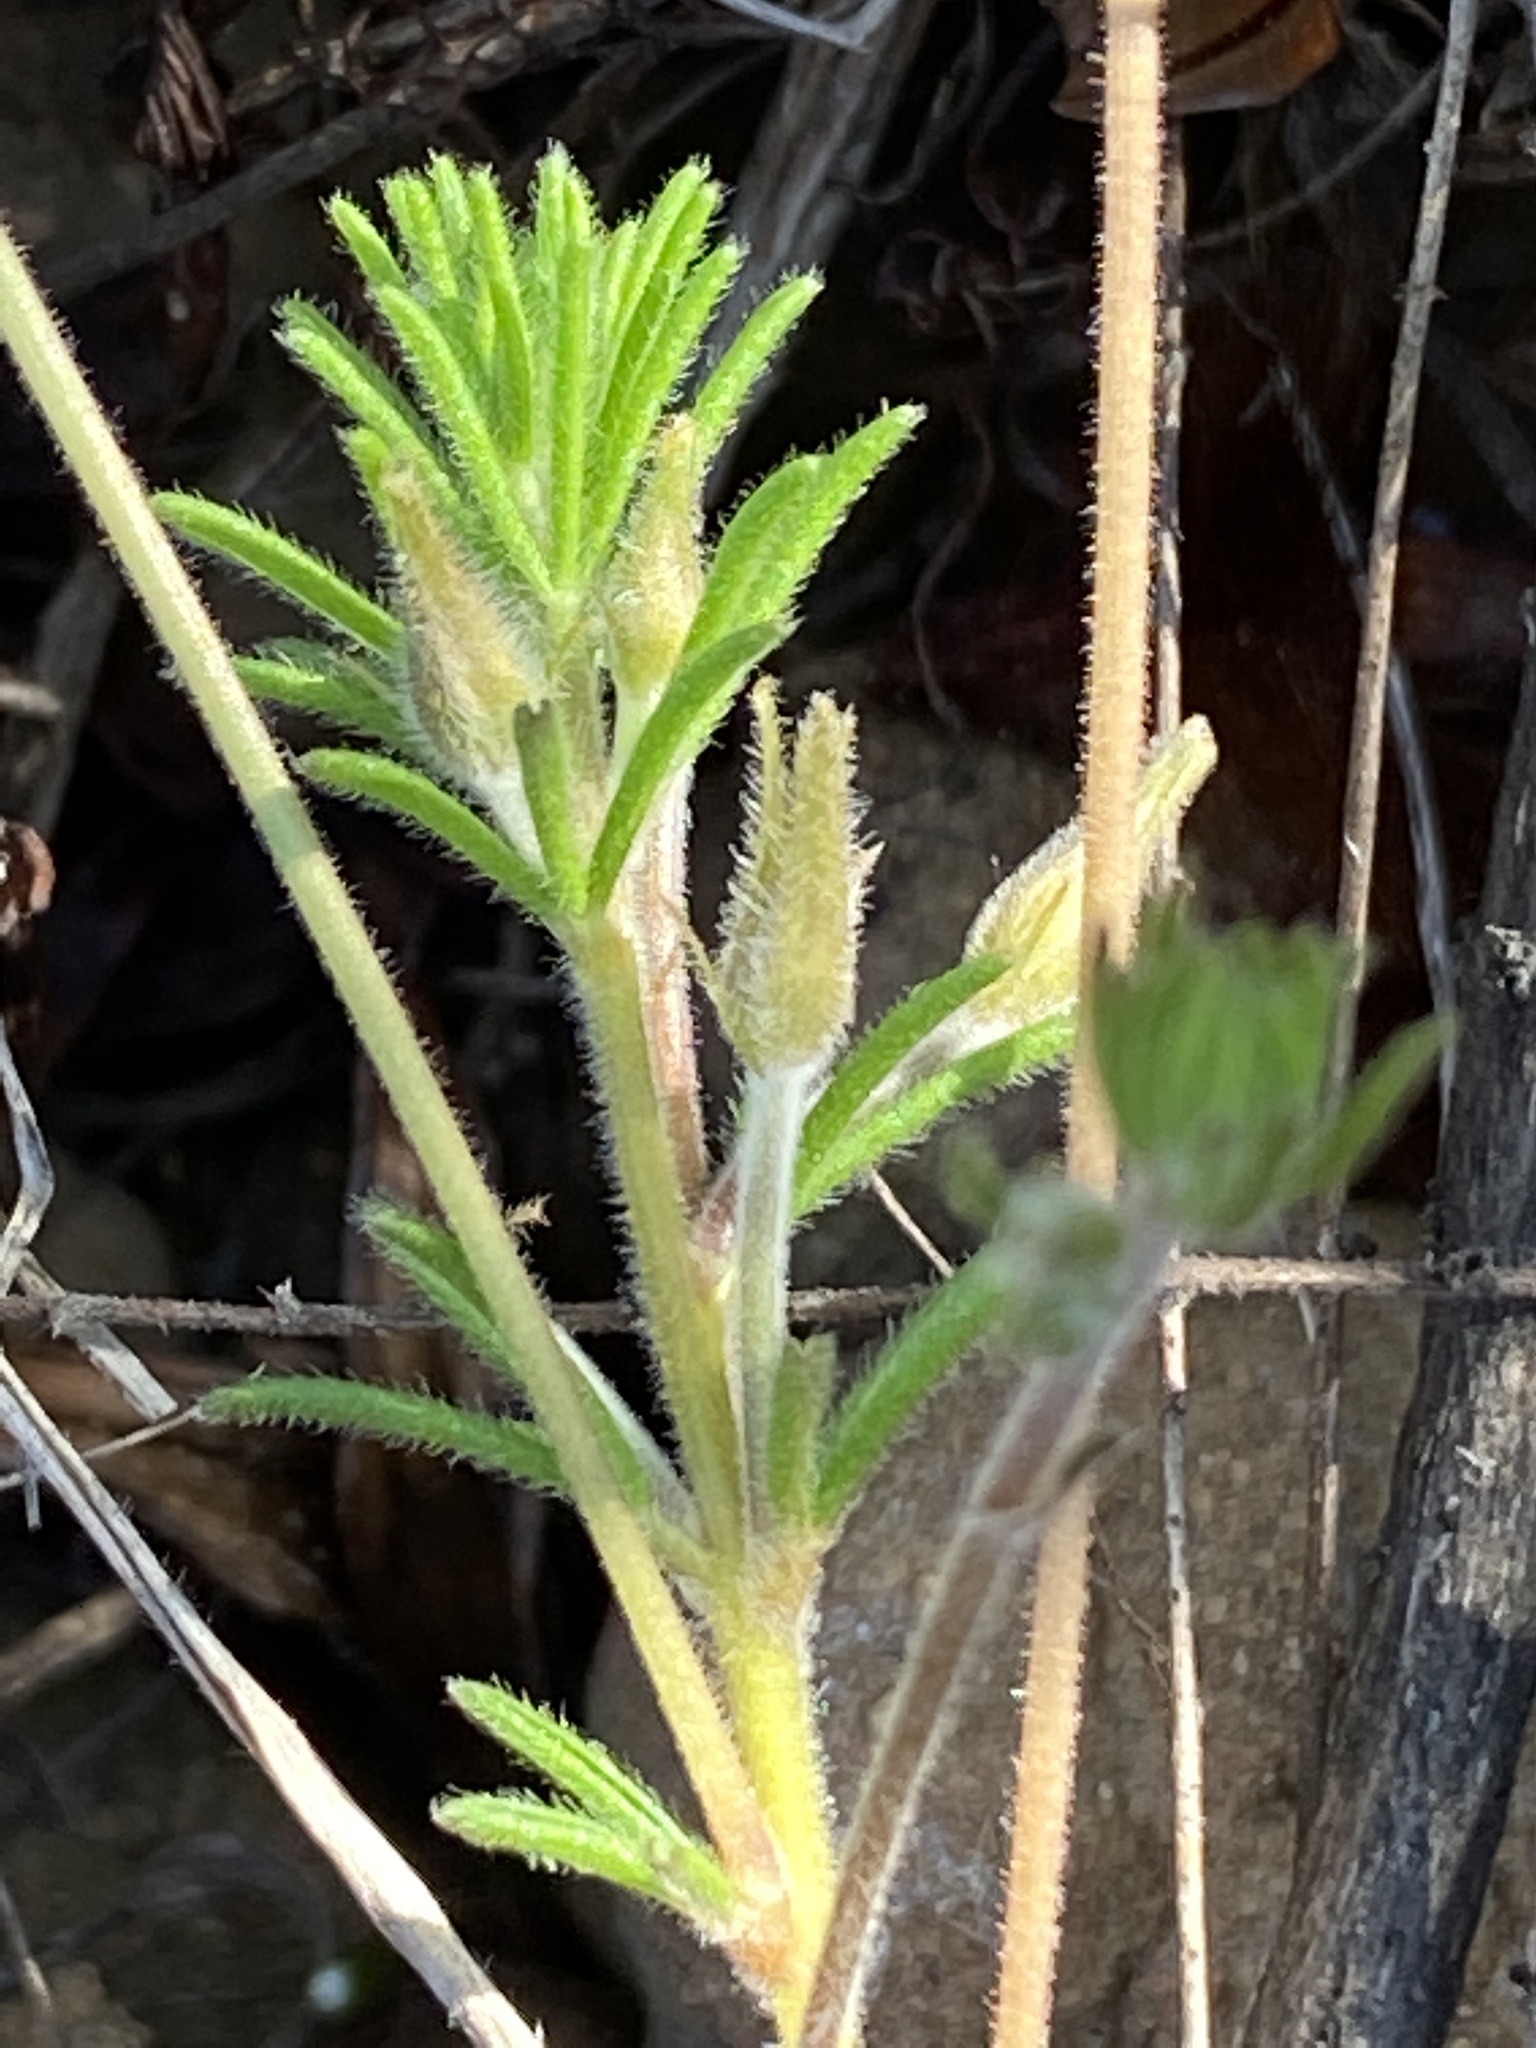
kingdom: Plantae
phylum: Tracheophyta
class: Magnoliopsida
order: Oxalidales
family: Oxalidaceae
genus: Oxalis
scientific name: Oxalis meisneri
